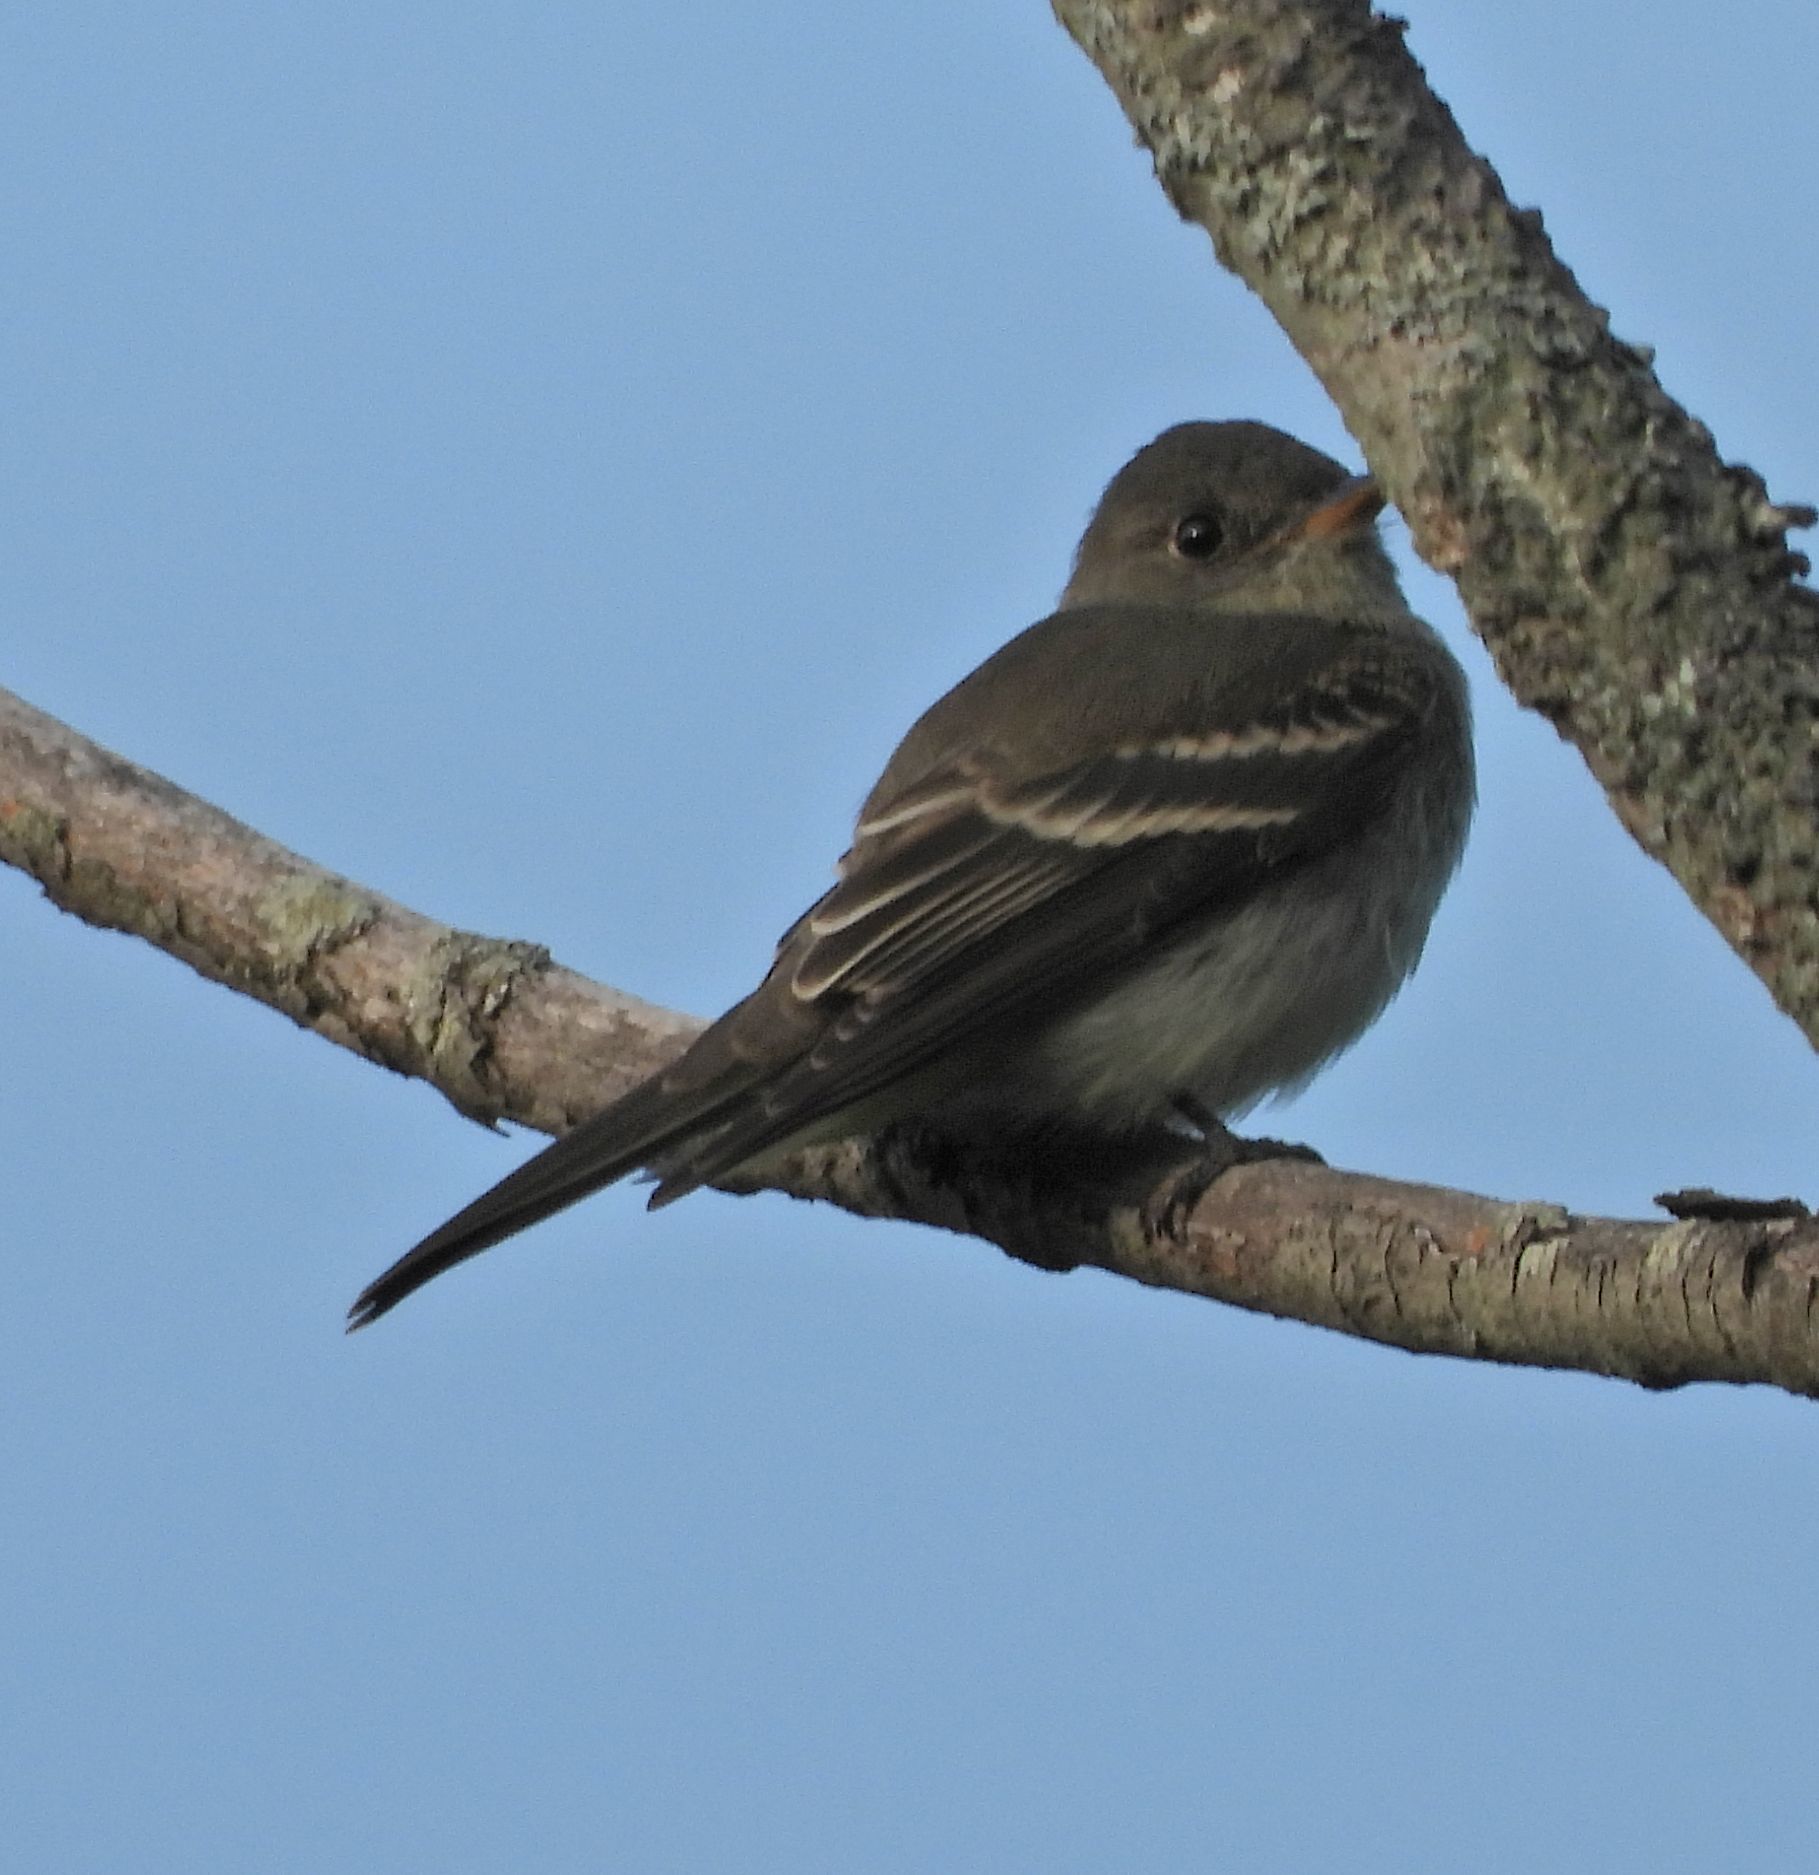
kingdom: Animalia
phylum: Chordata
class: Aves
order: Passeriformes
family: Tyrannidae
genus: Contopus
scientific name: Contopus virens
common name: Eastern wood-pewee
